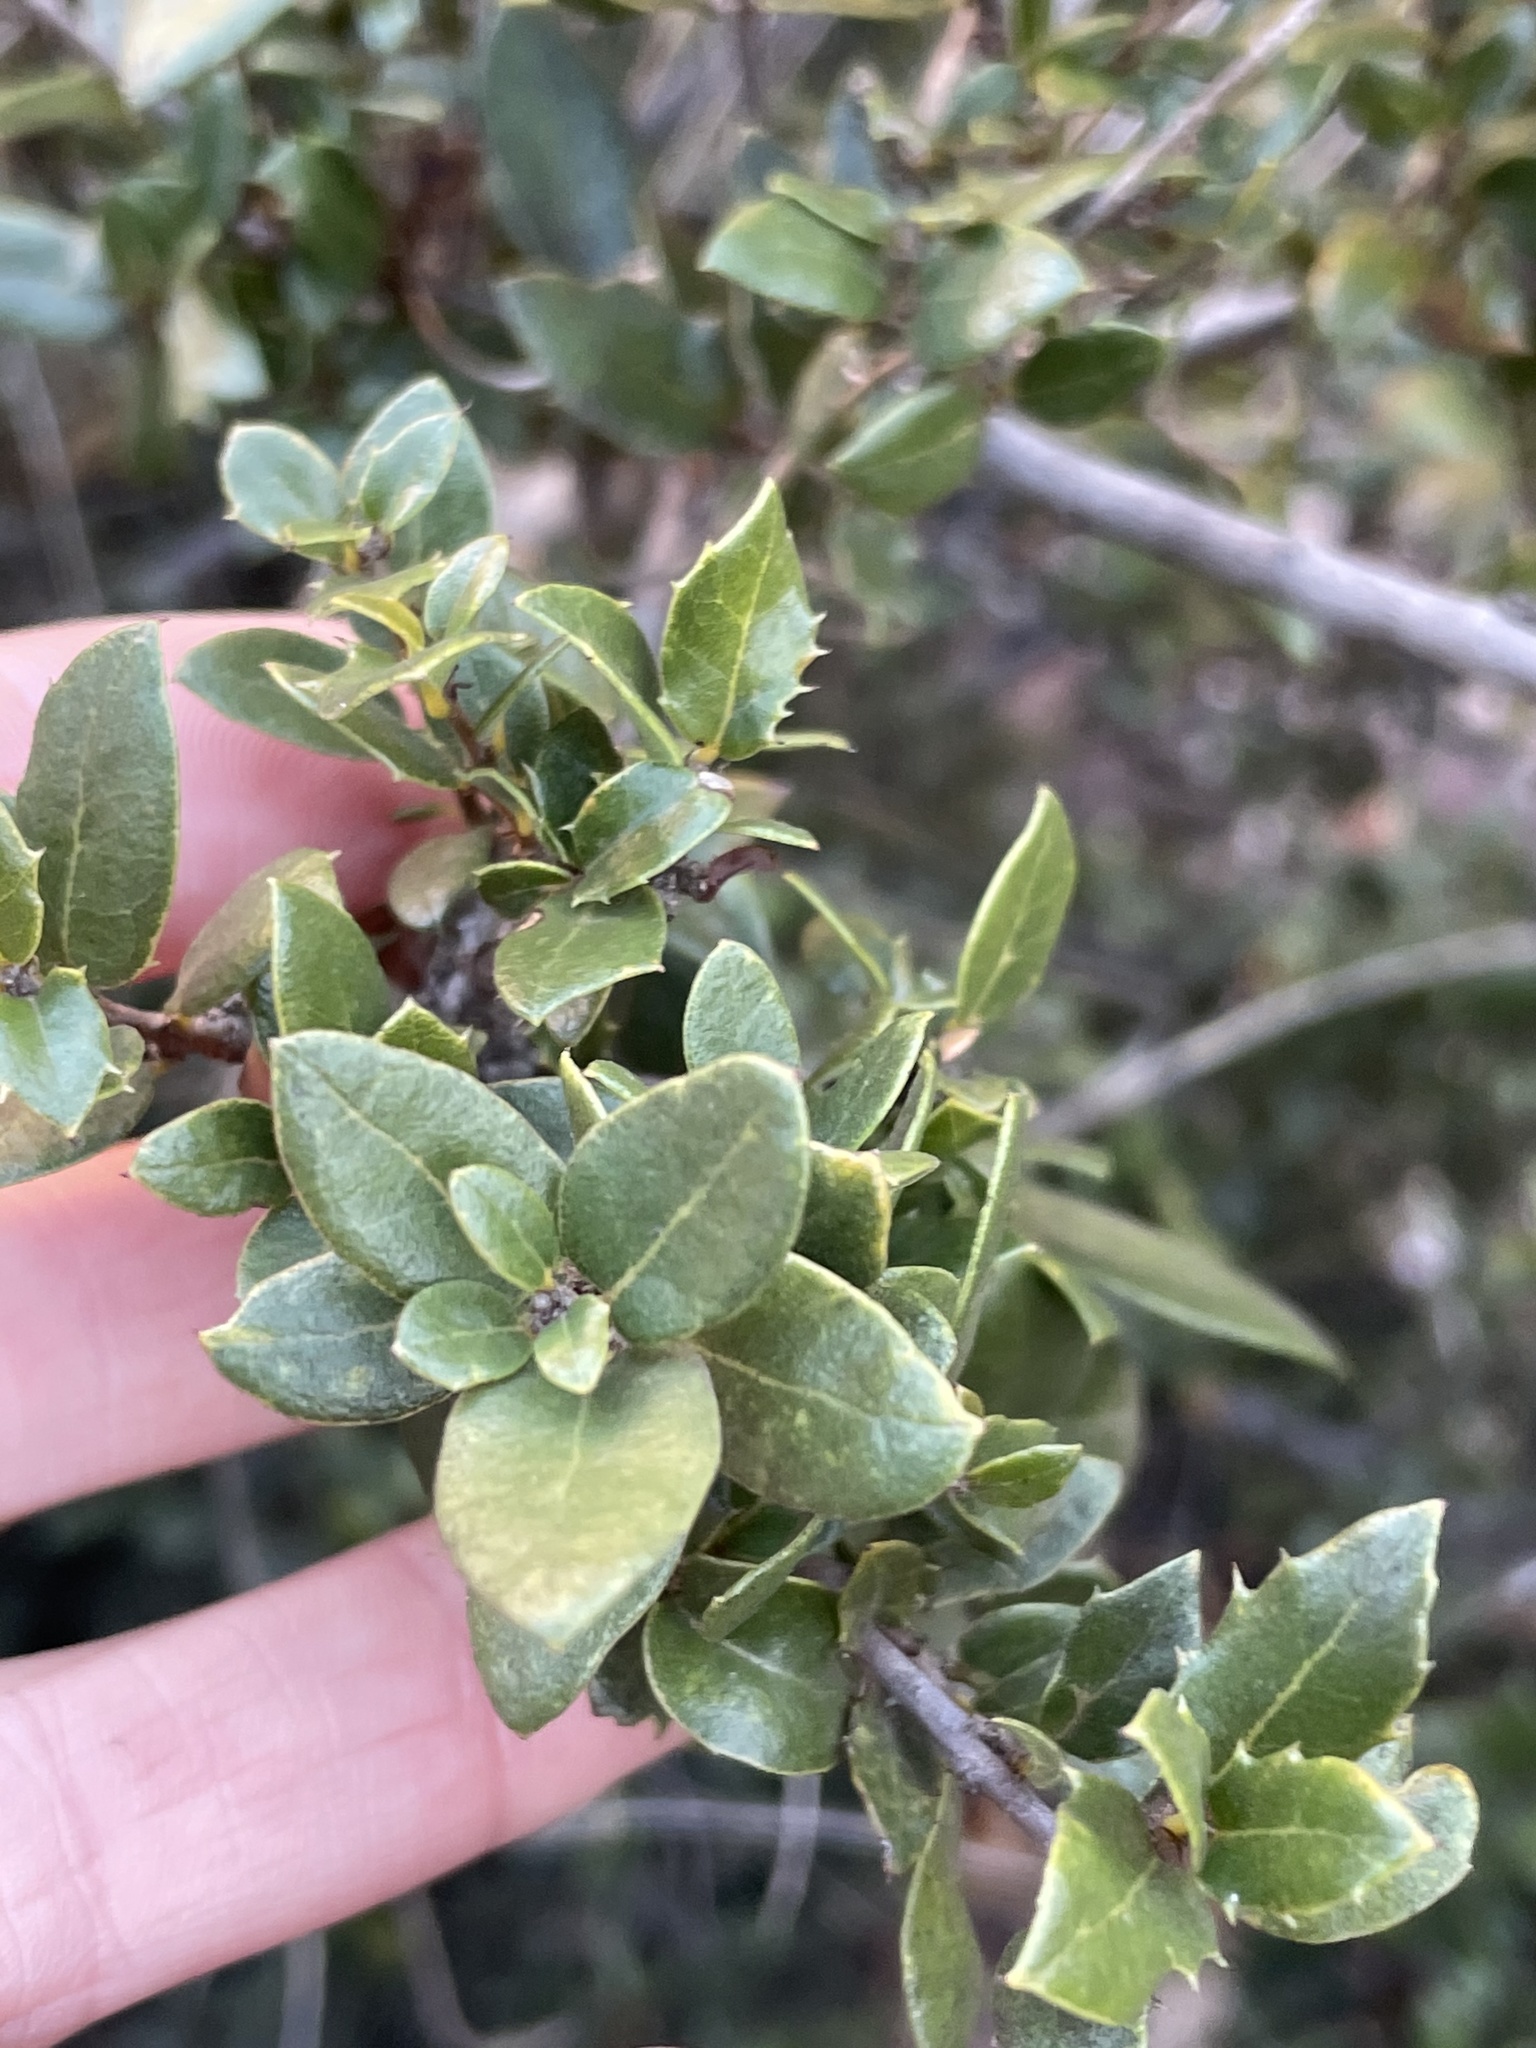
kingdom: Plantae
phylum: Tracheophyta
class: Magnoliopsida
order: Fagales
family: Fagaceae
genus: Quercus
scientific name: Quercus cedrosensis
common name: Cedros island oak
